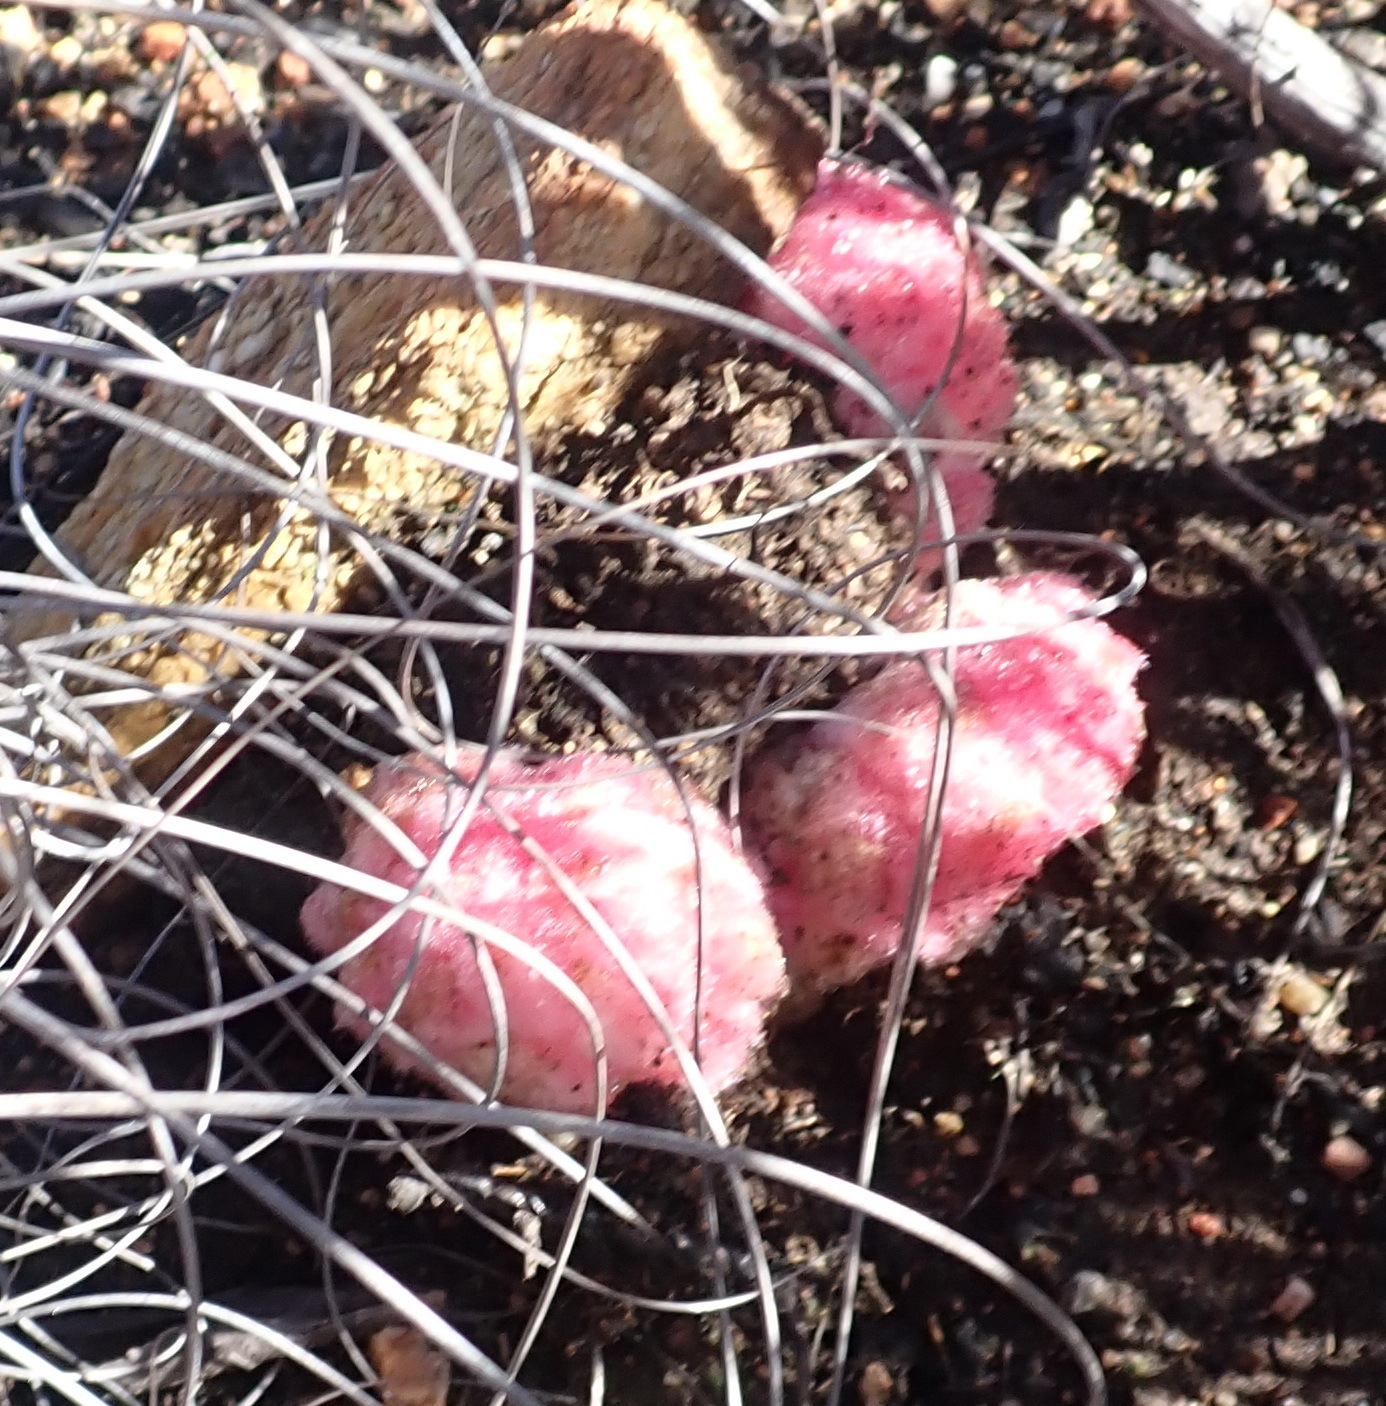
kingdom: Plantae
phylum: Tracheophyta
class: Magnoliopsida
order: Lamiales
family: Orobanchaceae
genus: Harveya
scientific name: Harveya roseoalba
